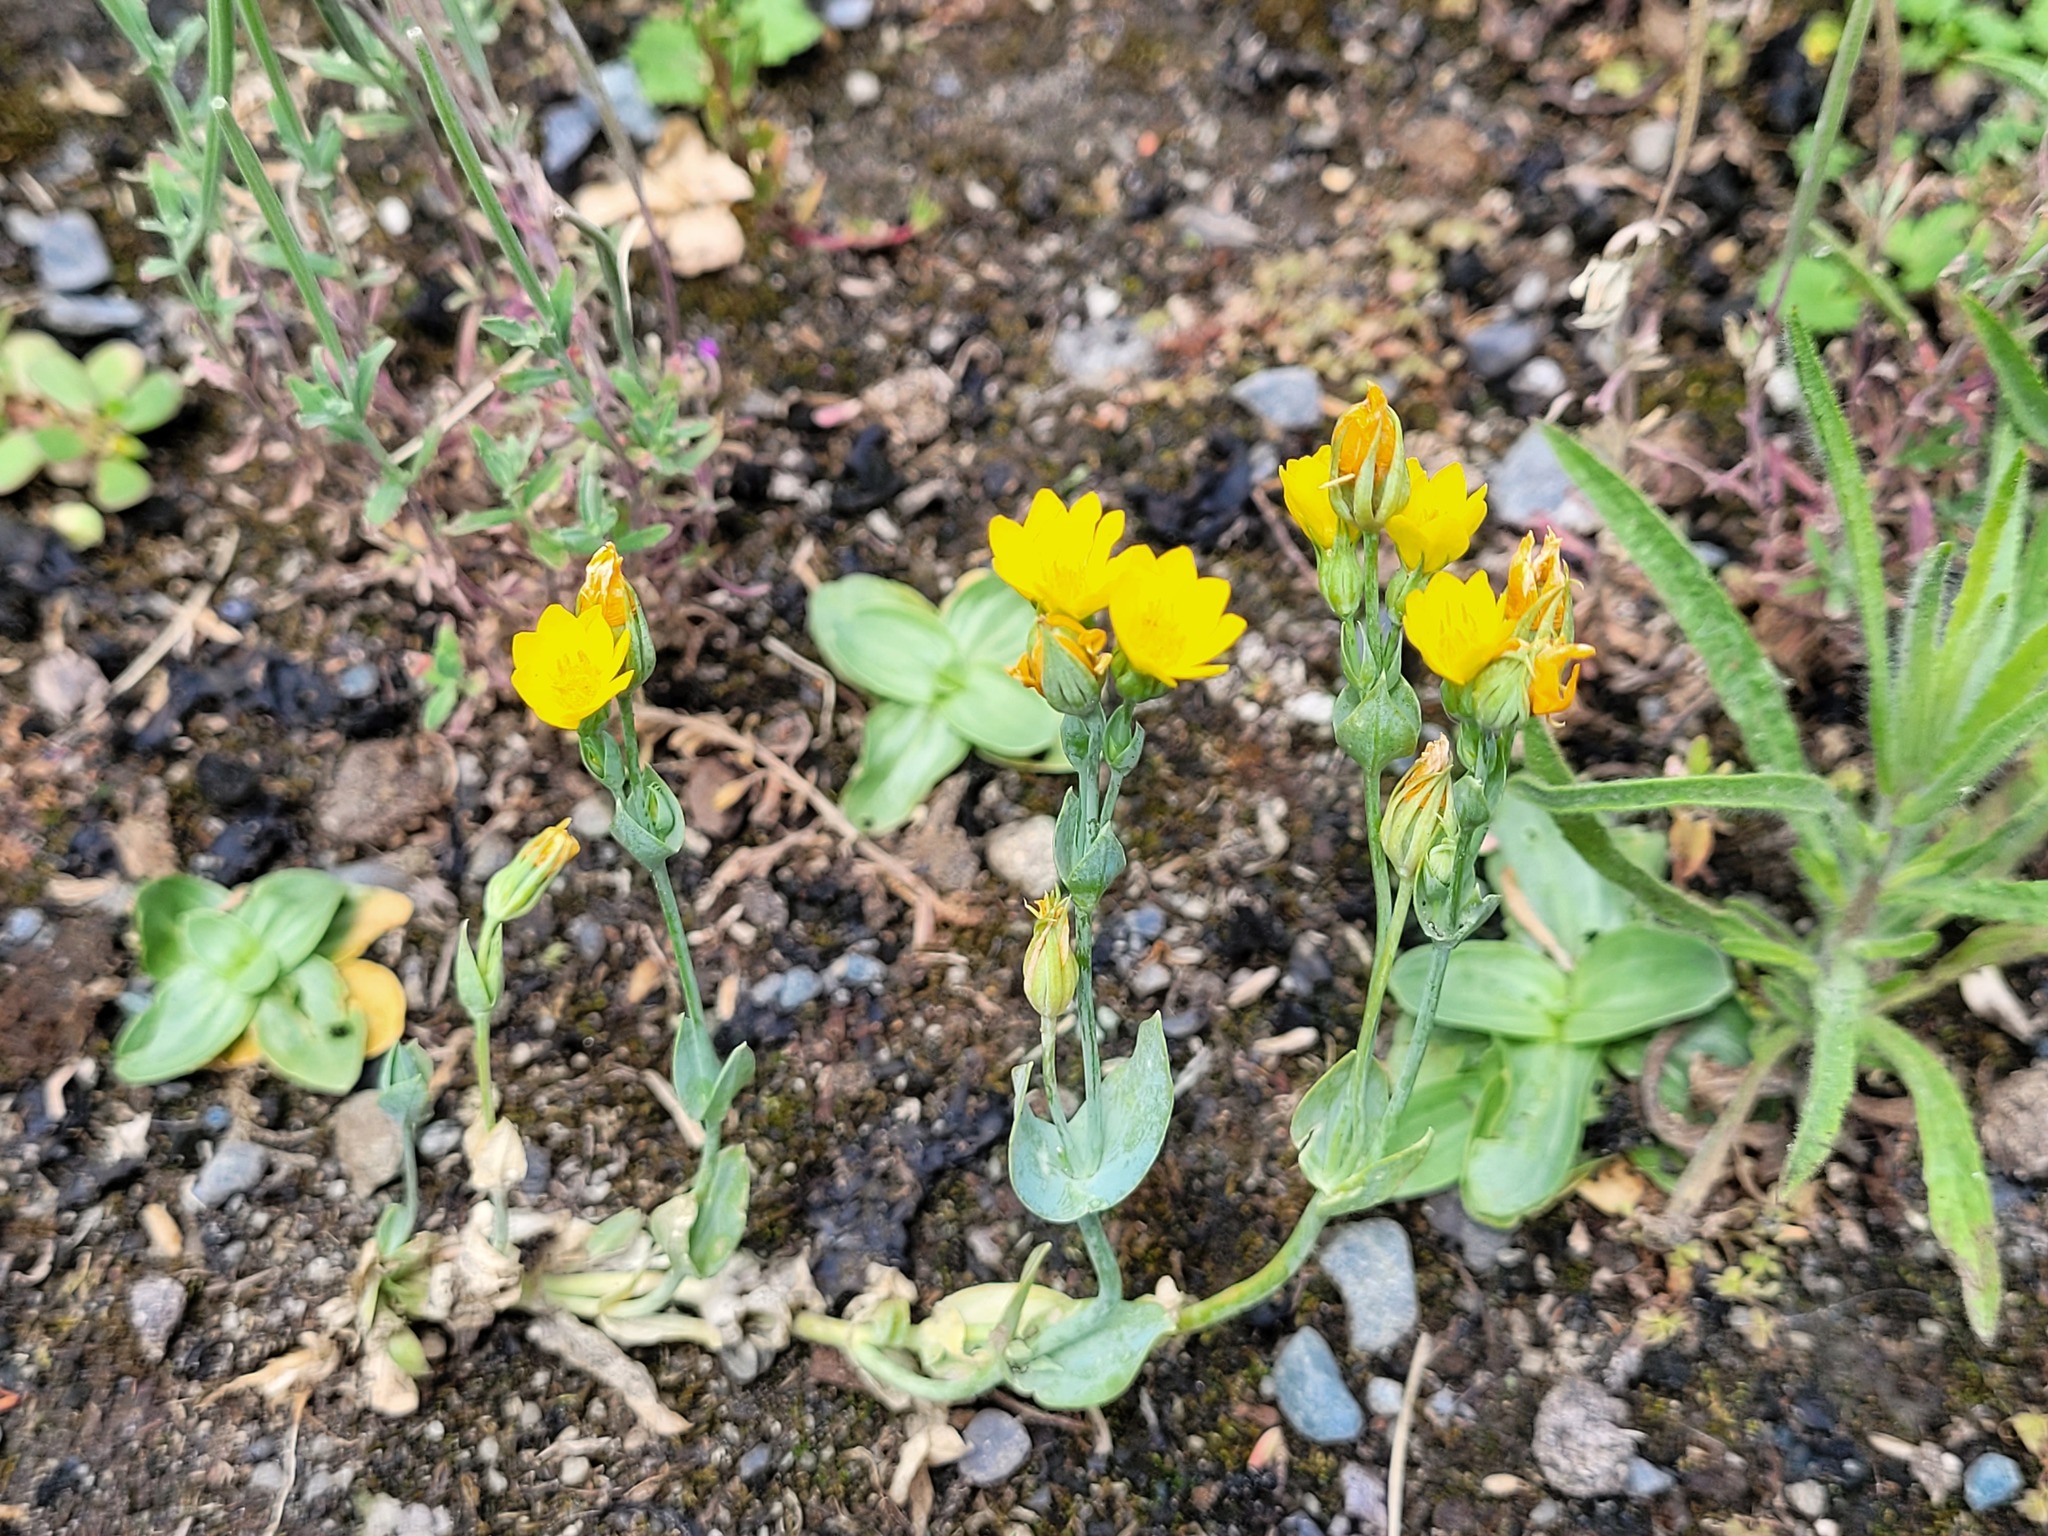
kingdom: Plantae
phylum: Tracheophyta
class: Magnoliopsida
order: Gentianales
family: Gentianaceae
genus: Blackstonia
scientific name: Blackstonia perfoliata
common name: Yellow-wort
